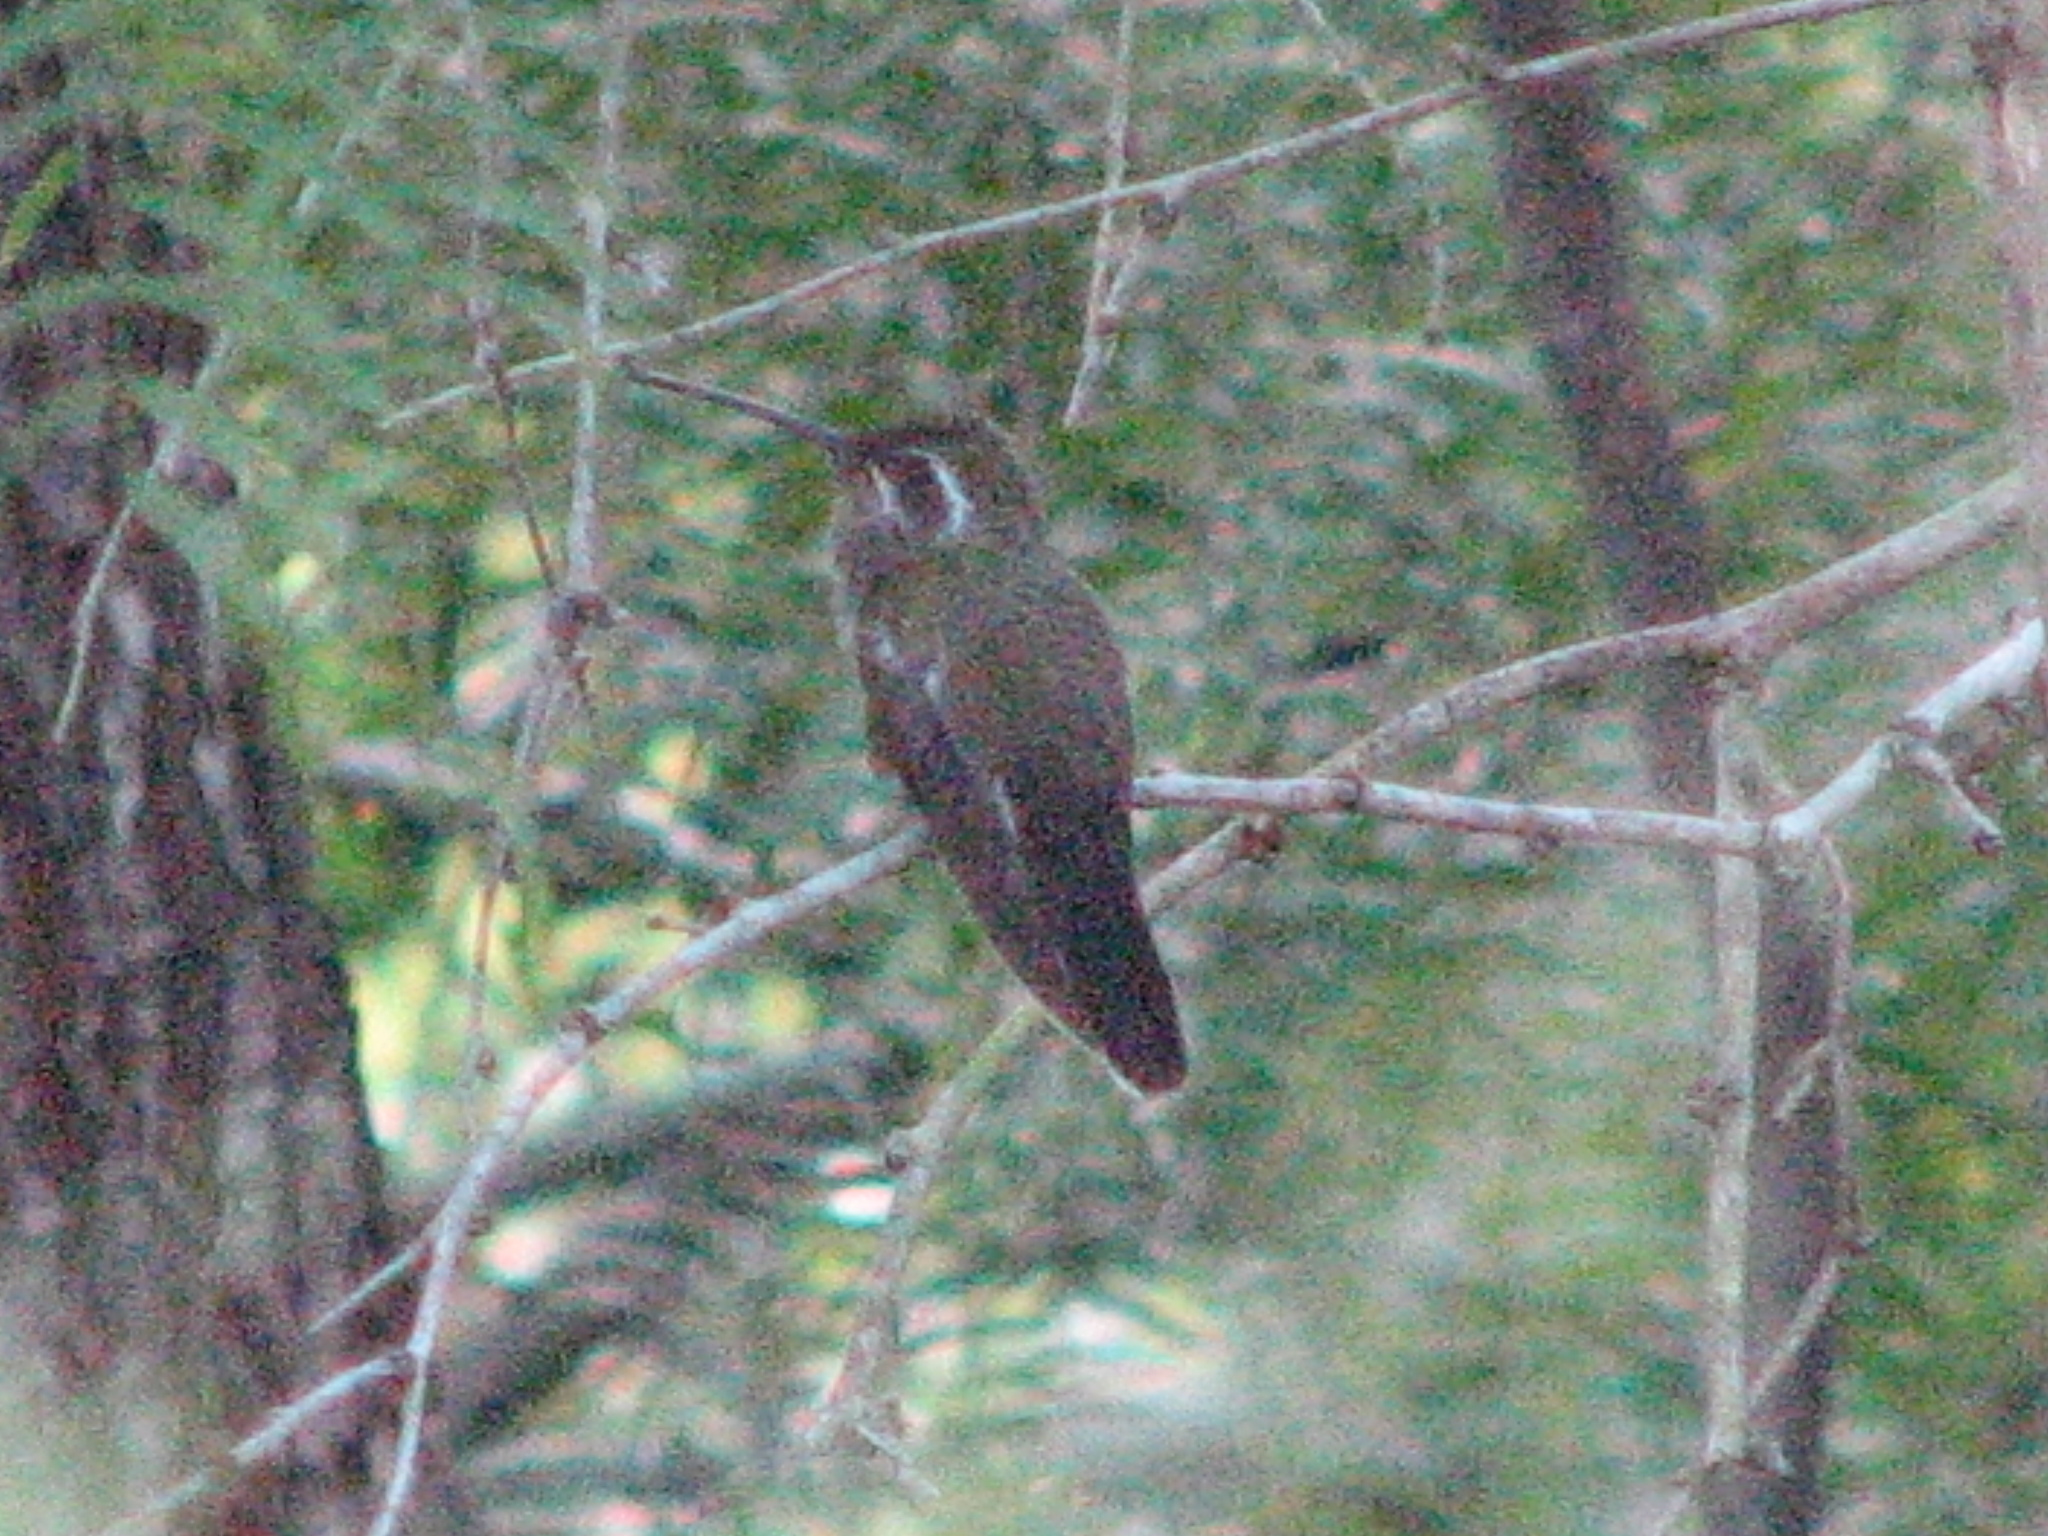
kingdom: Animalia
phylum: Chordata
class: Aves
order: Apodiformes
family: Trochilidae
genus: Lampornis
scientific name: Lampornis clemenciae
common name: Blue-throated mountaingem
